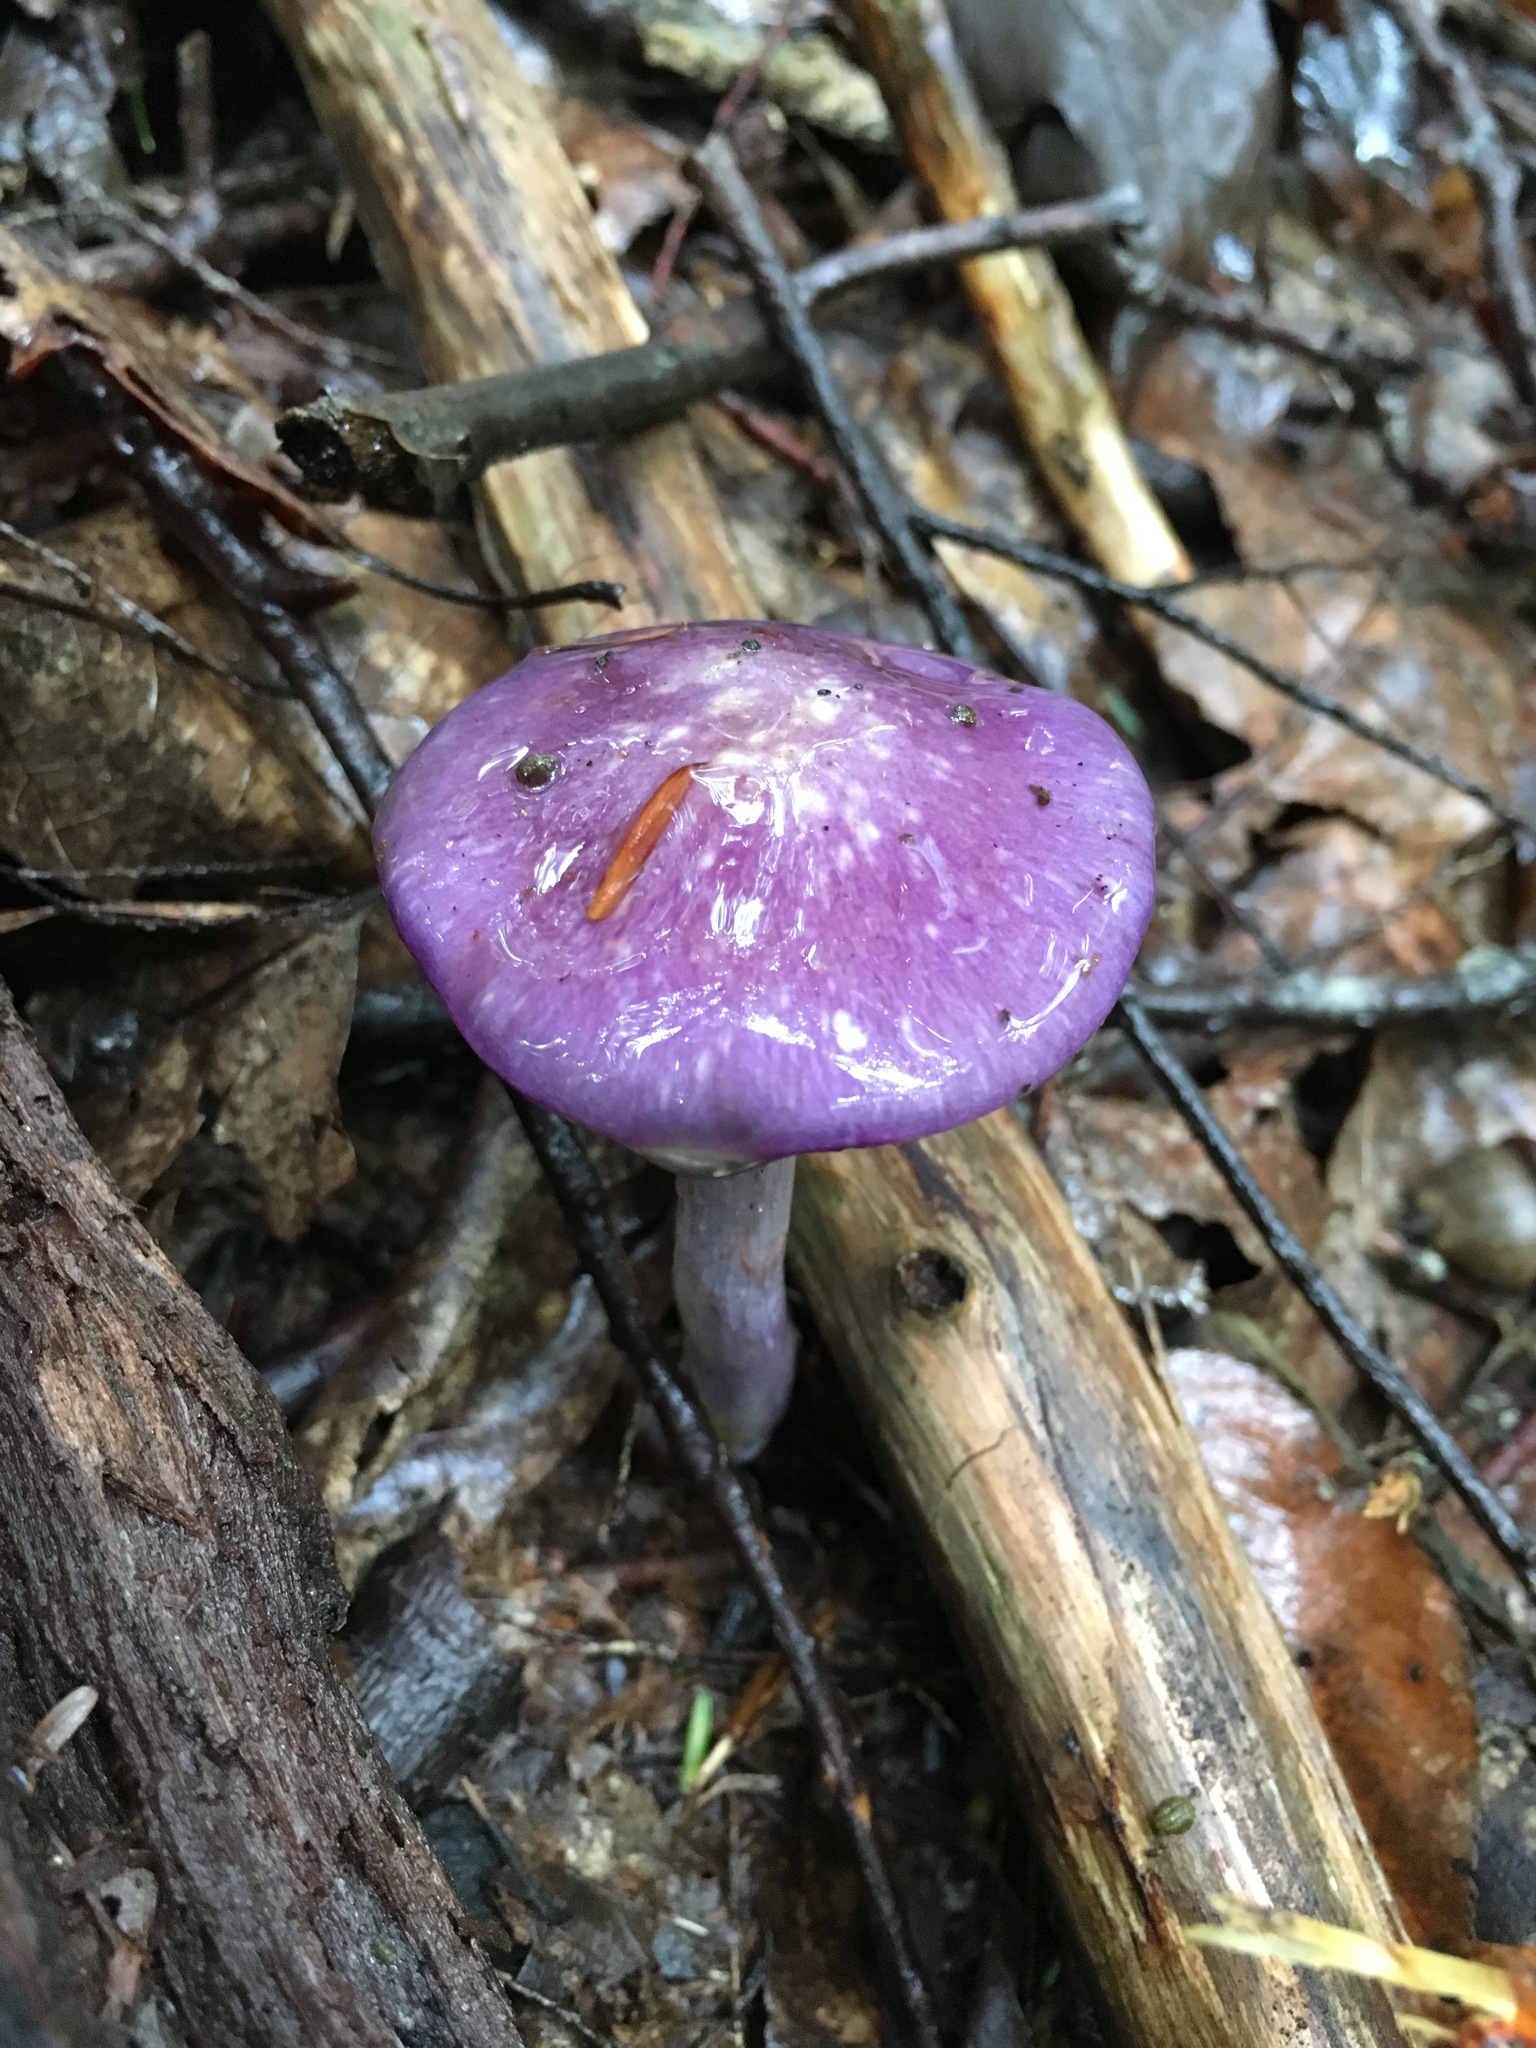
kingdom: Fungi
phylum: Basidiomycota
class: Agaricomycetes
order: Agaricales
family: Cortinariaceae
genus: Cortinarius
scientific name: Cortinarius iodes
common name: Viscid violet cort
